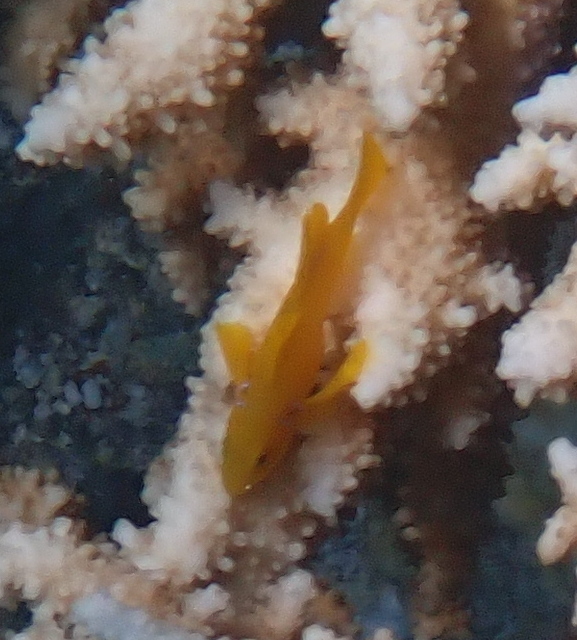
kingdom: Animalia
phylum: Chordata
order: Perciformes
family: Gobiidae
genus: Gobiodon
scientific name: Gobiodon citrinus
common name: Citron goby
